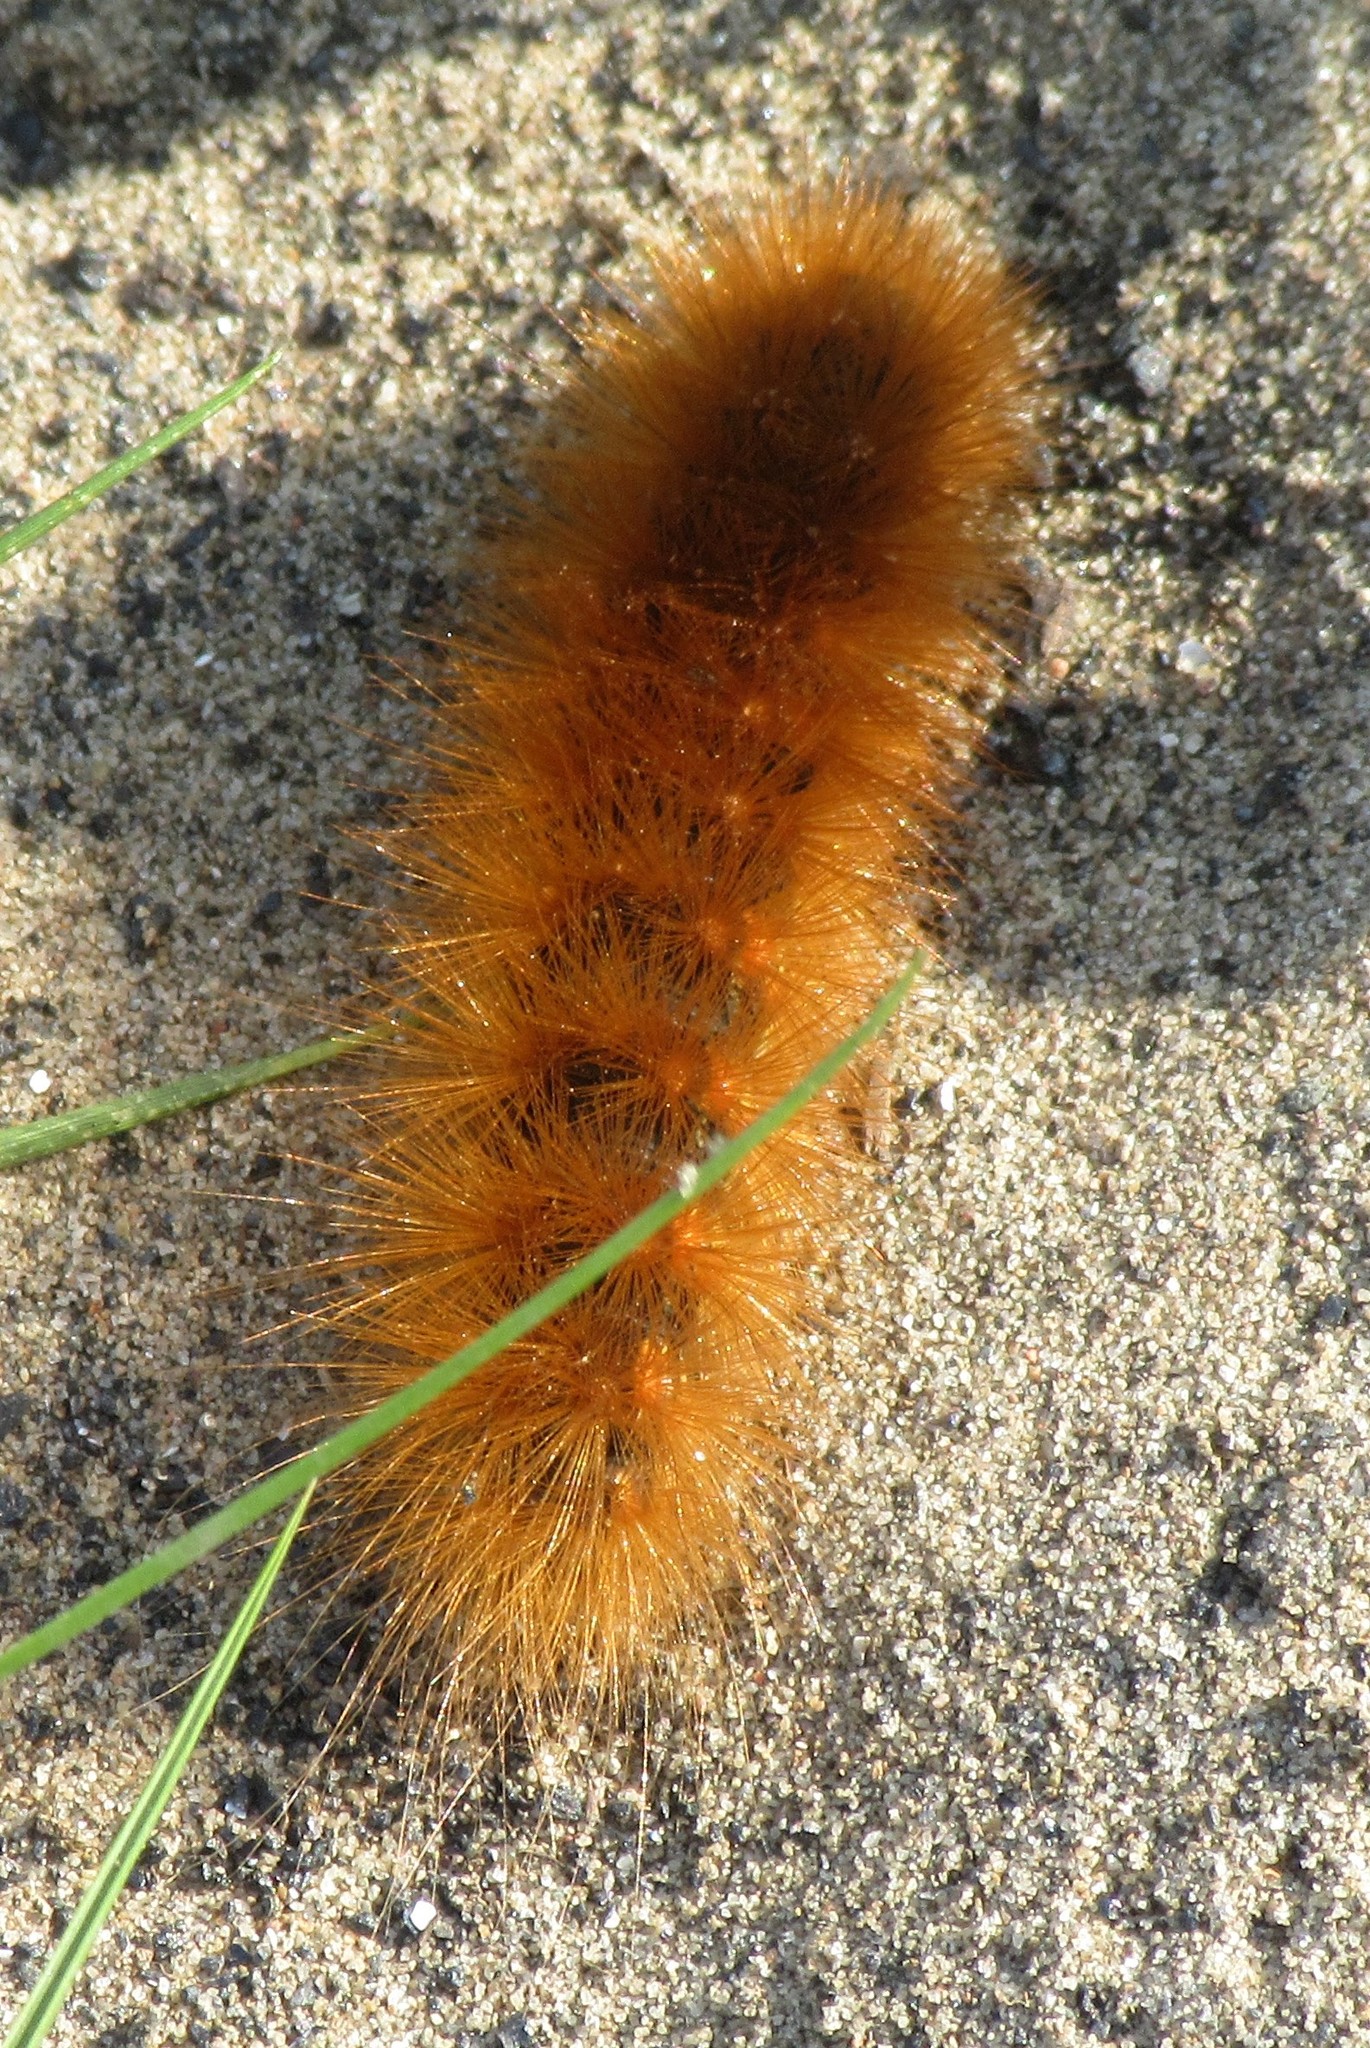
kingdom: Animalia
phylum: Arthropoda
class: Insecta
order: Lepidoptera
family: Erebidae
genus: Estigmene
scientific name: Estigmene acrea
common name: Salt marsh moth
